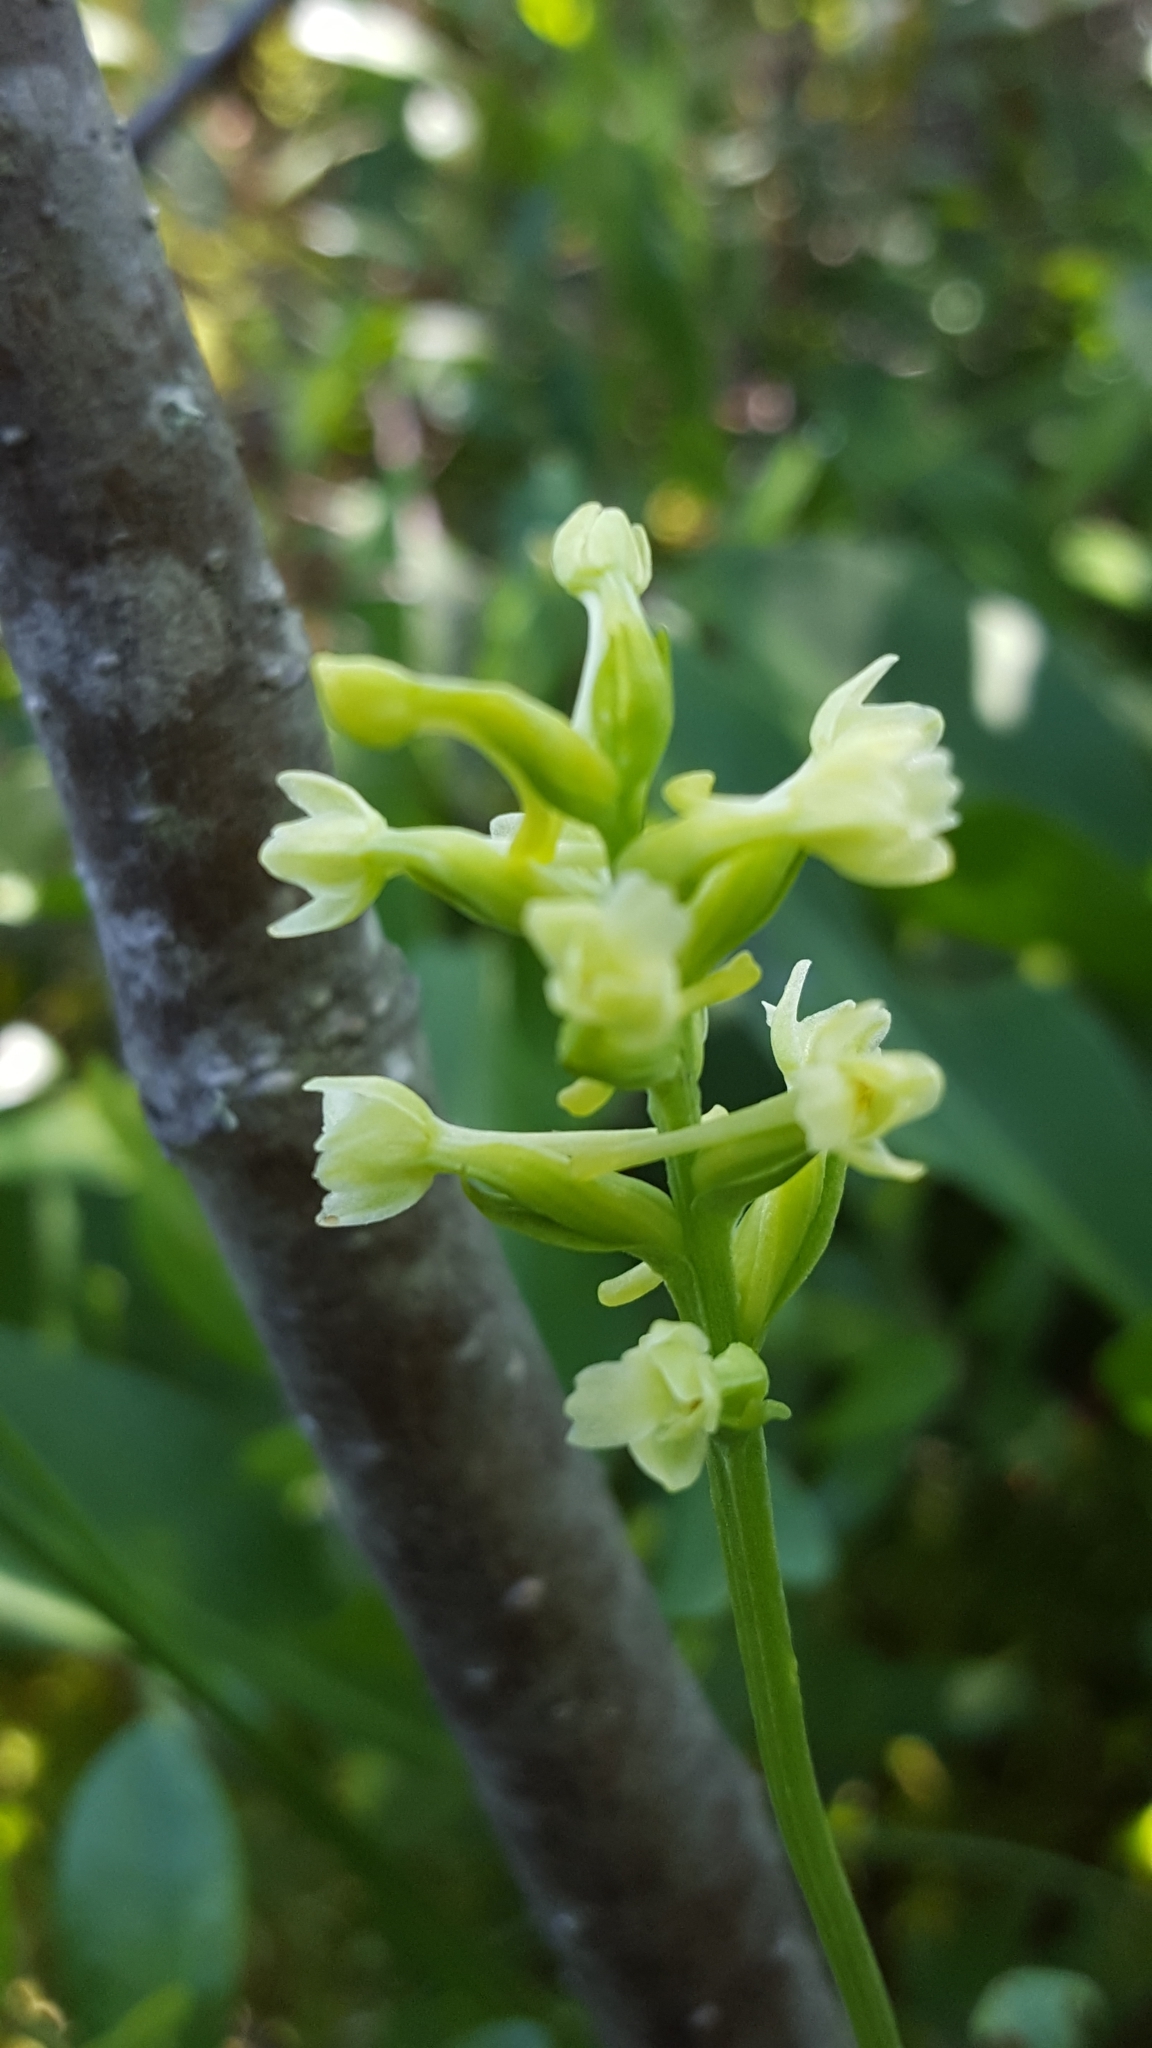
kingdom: Plantae
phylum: Tracheophyta
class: Liliopsida
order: Asparagales
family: Orchidaceae
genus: Platanthera
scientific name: Platanthera clavellata
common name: Club-spur orchid
